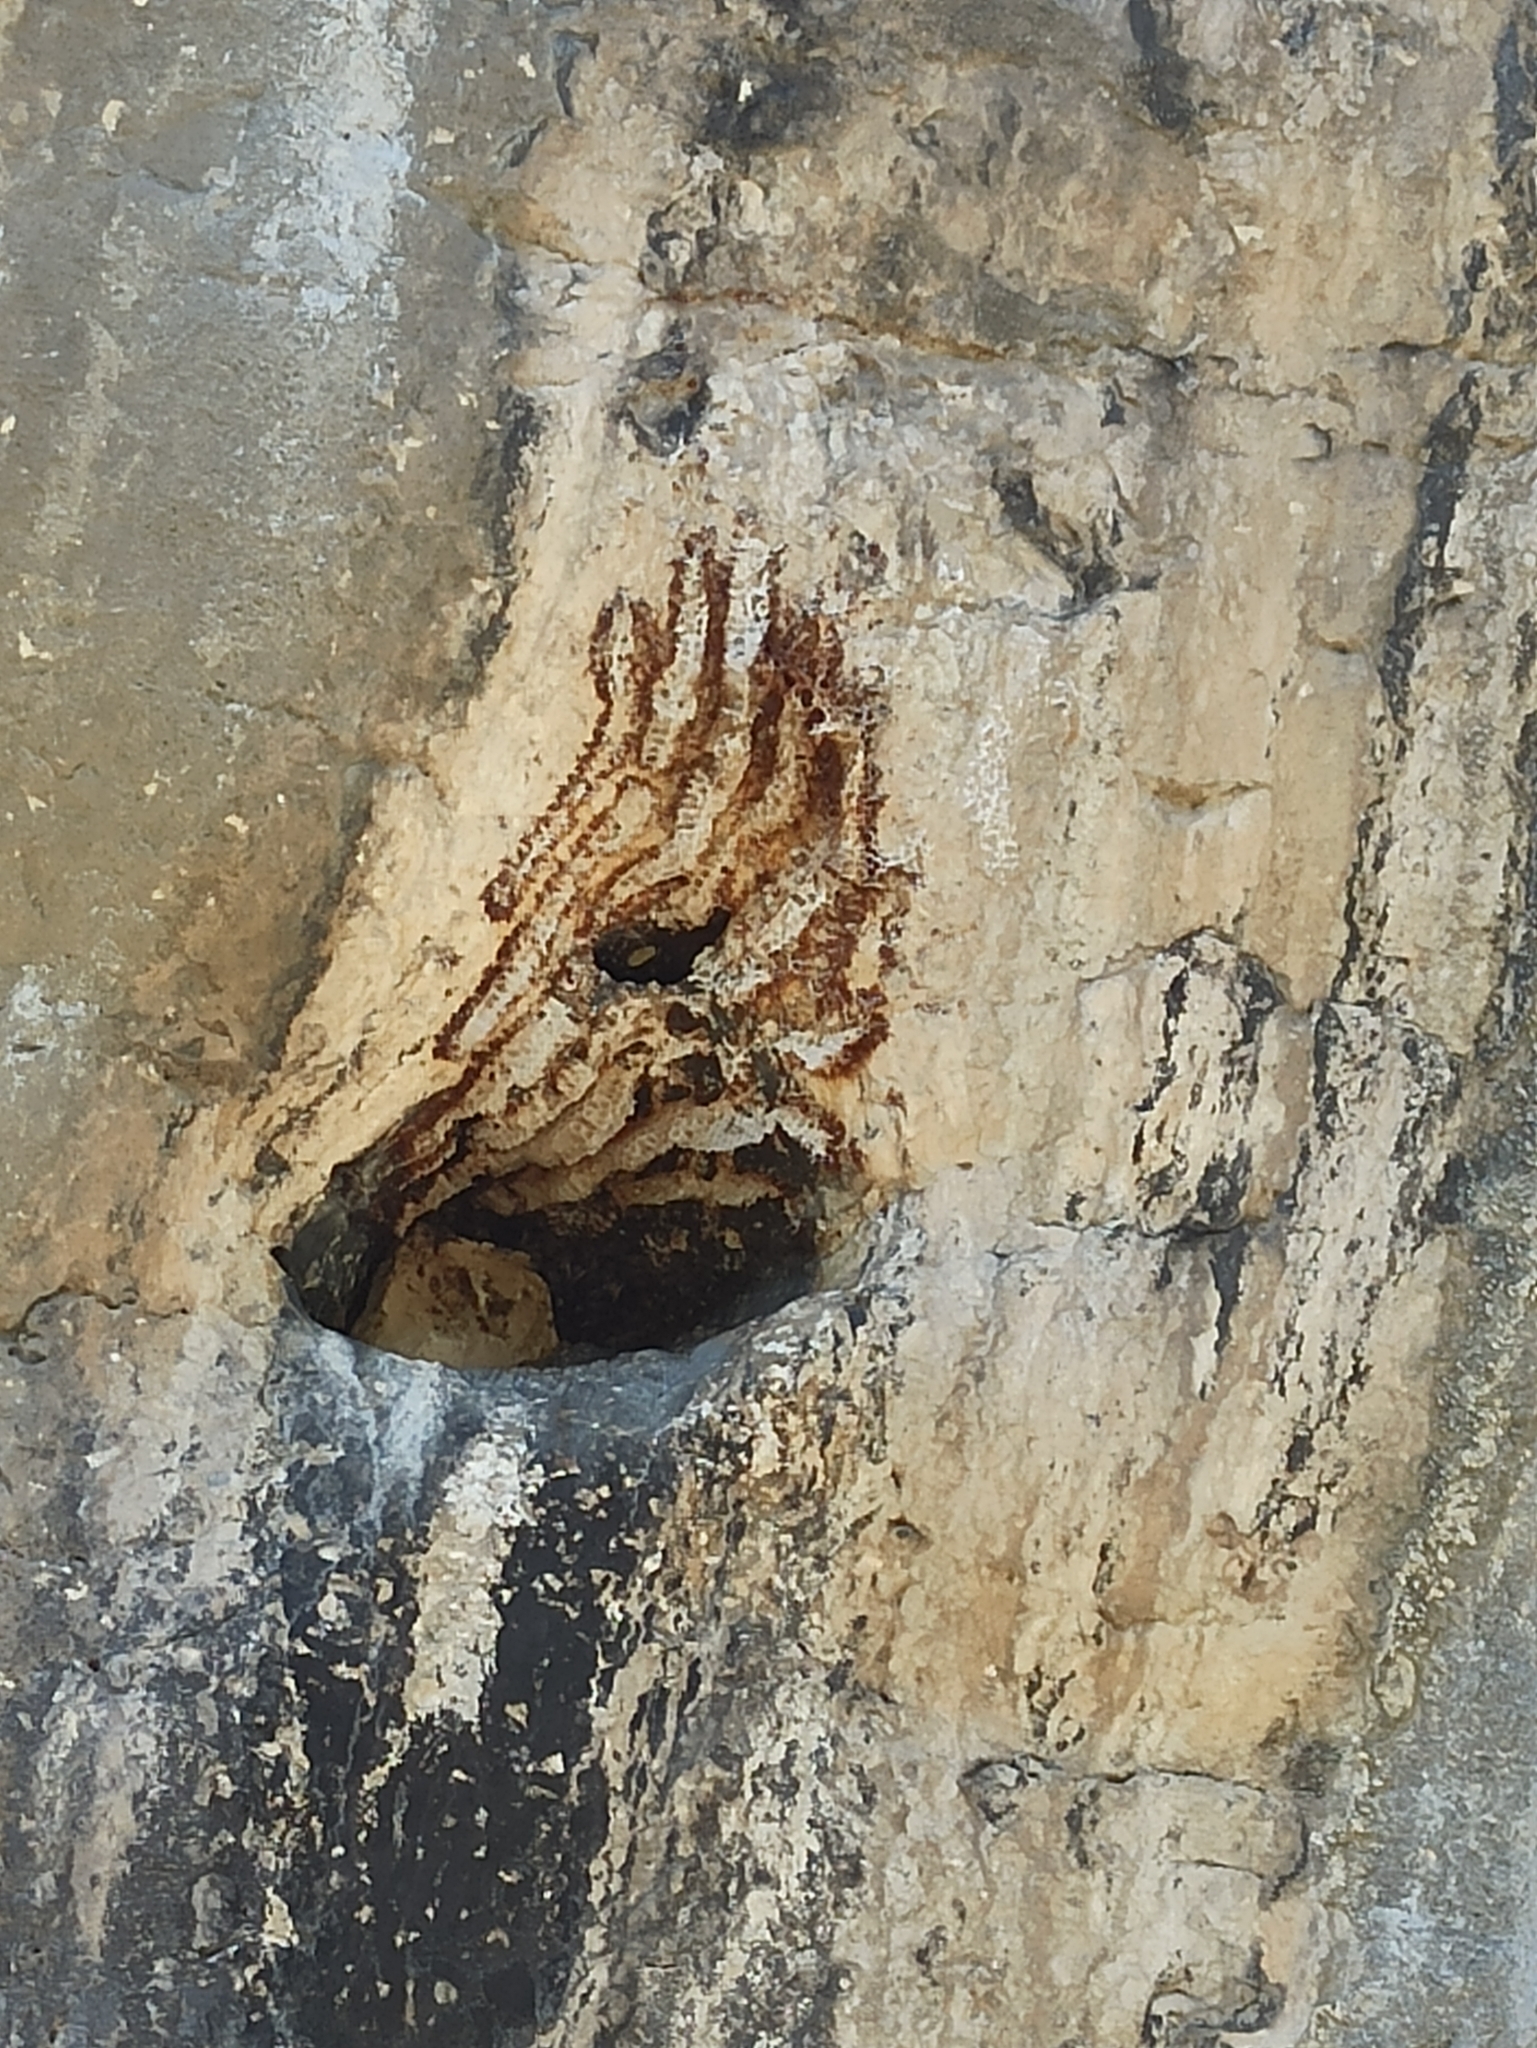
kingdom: Animalia
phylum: Arthropoda
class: Insecta
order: Hymenoptera
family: Apidae
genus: Apis
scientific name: Apis mellifera
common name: Honey bee
